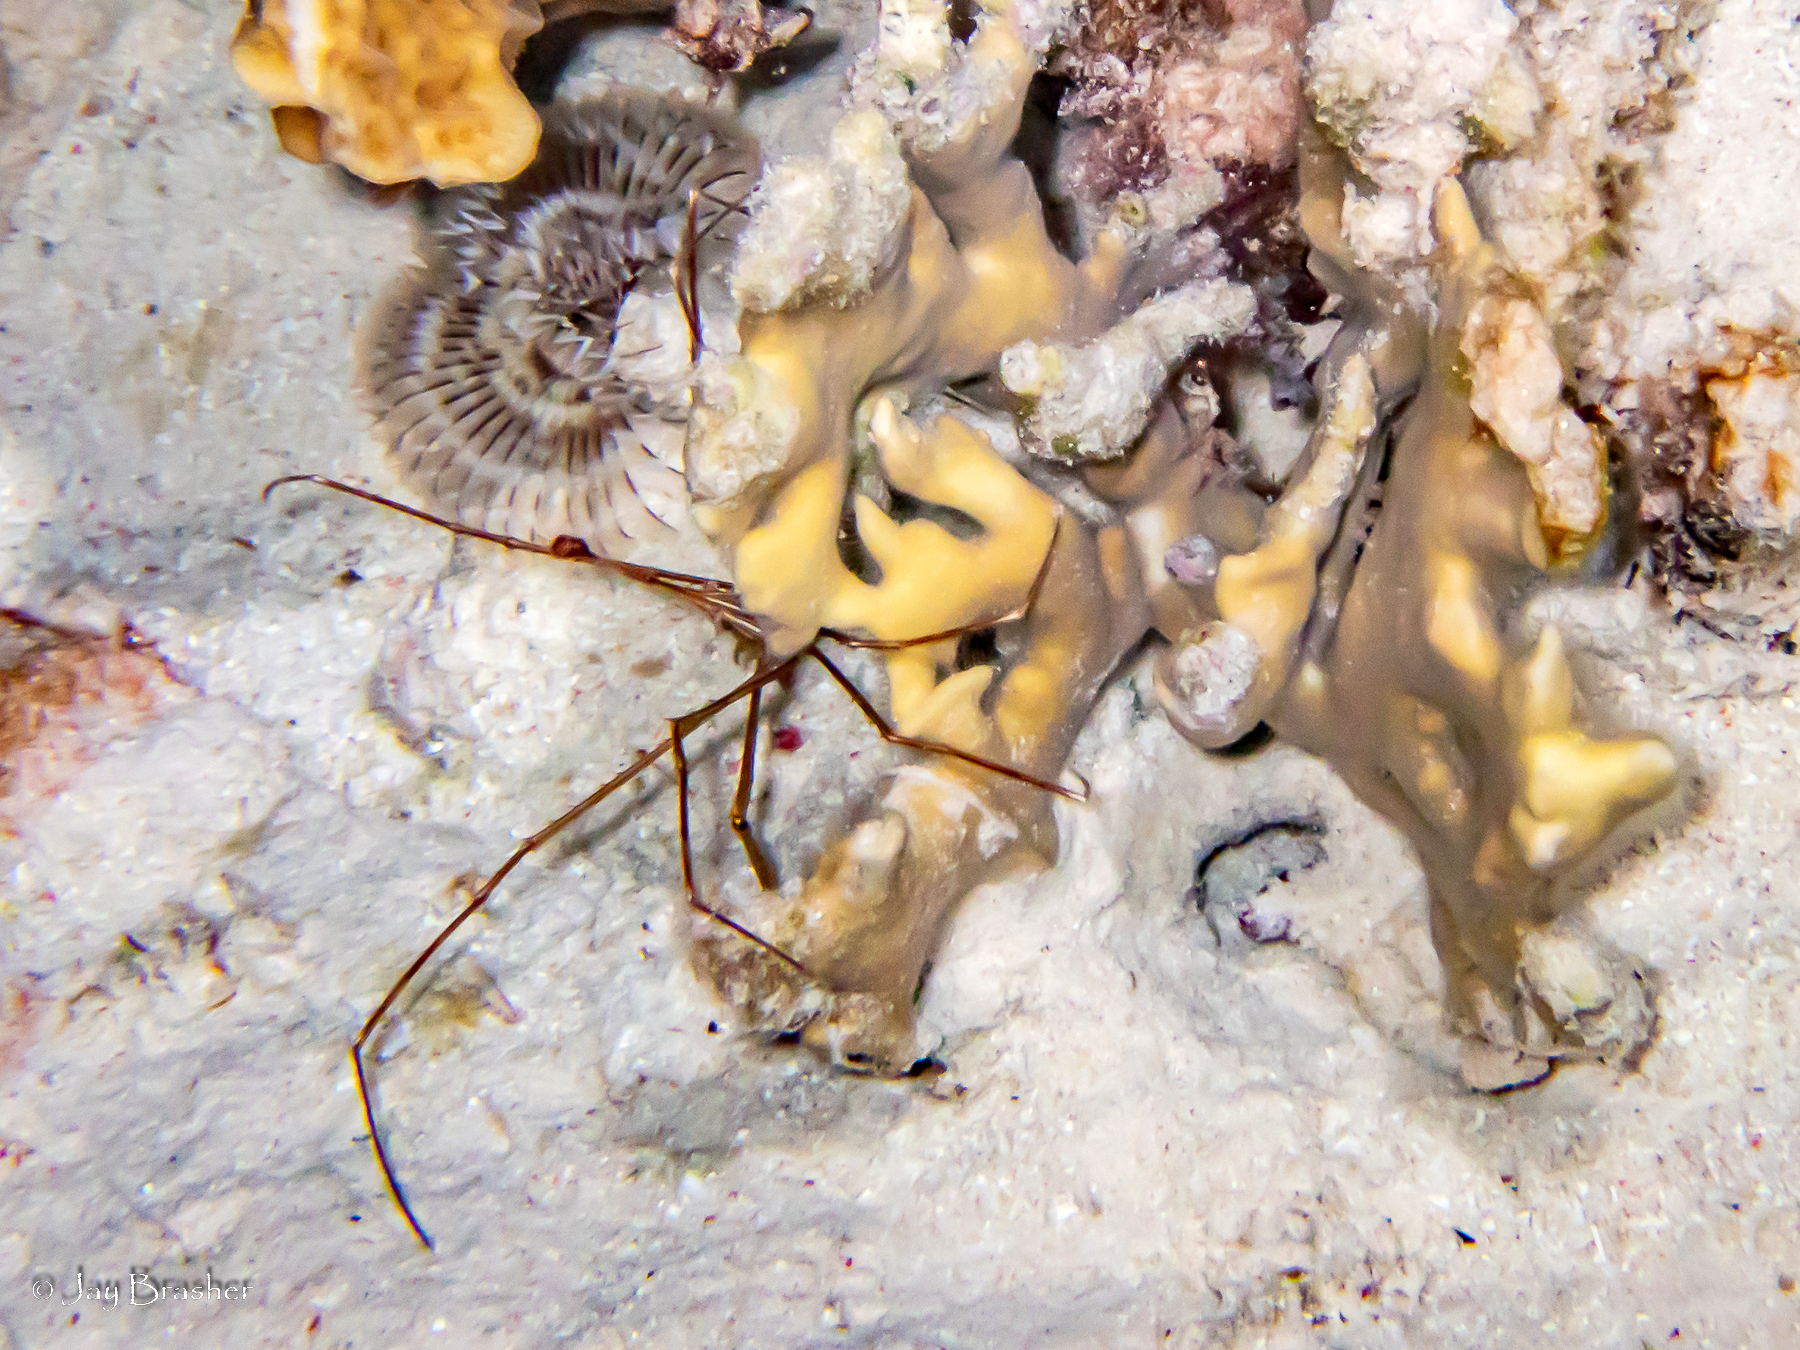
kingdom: Animalia
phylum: Arthropoda
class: Malacostraca
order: Decapoda
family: Inachoididae
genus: Stenorhynchus
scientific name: Stenorhynchus seticornis
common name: Arrow crab
